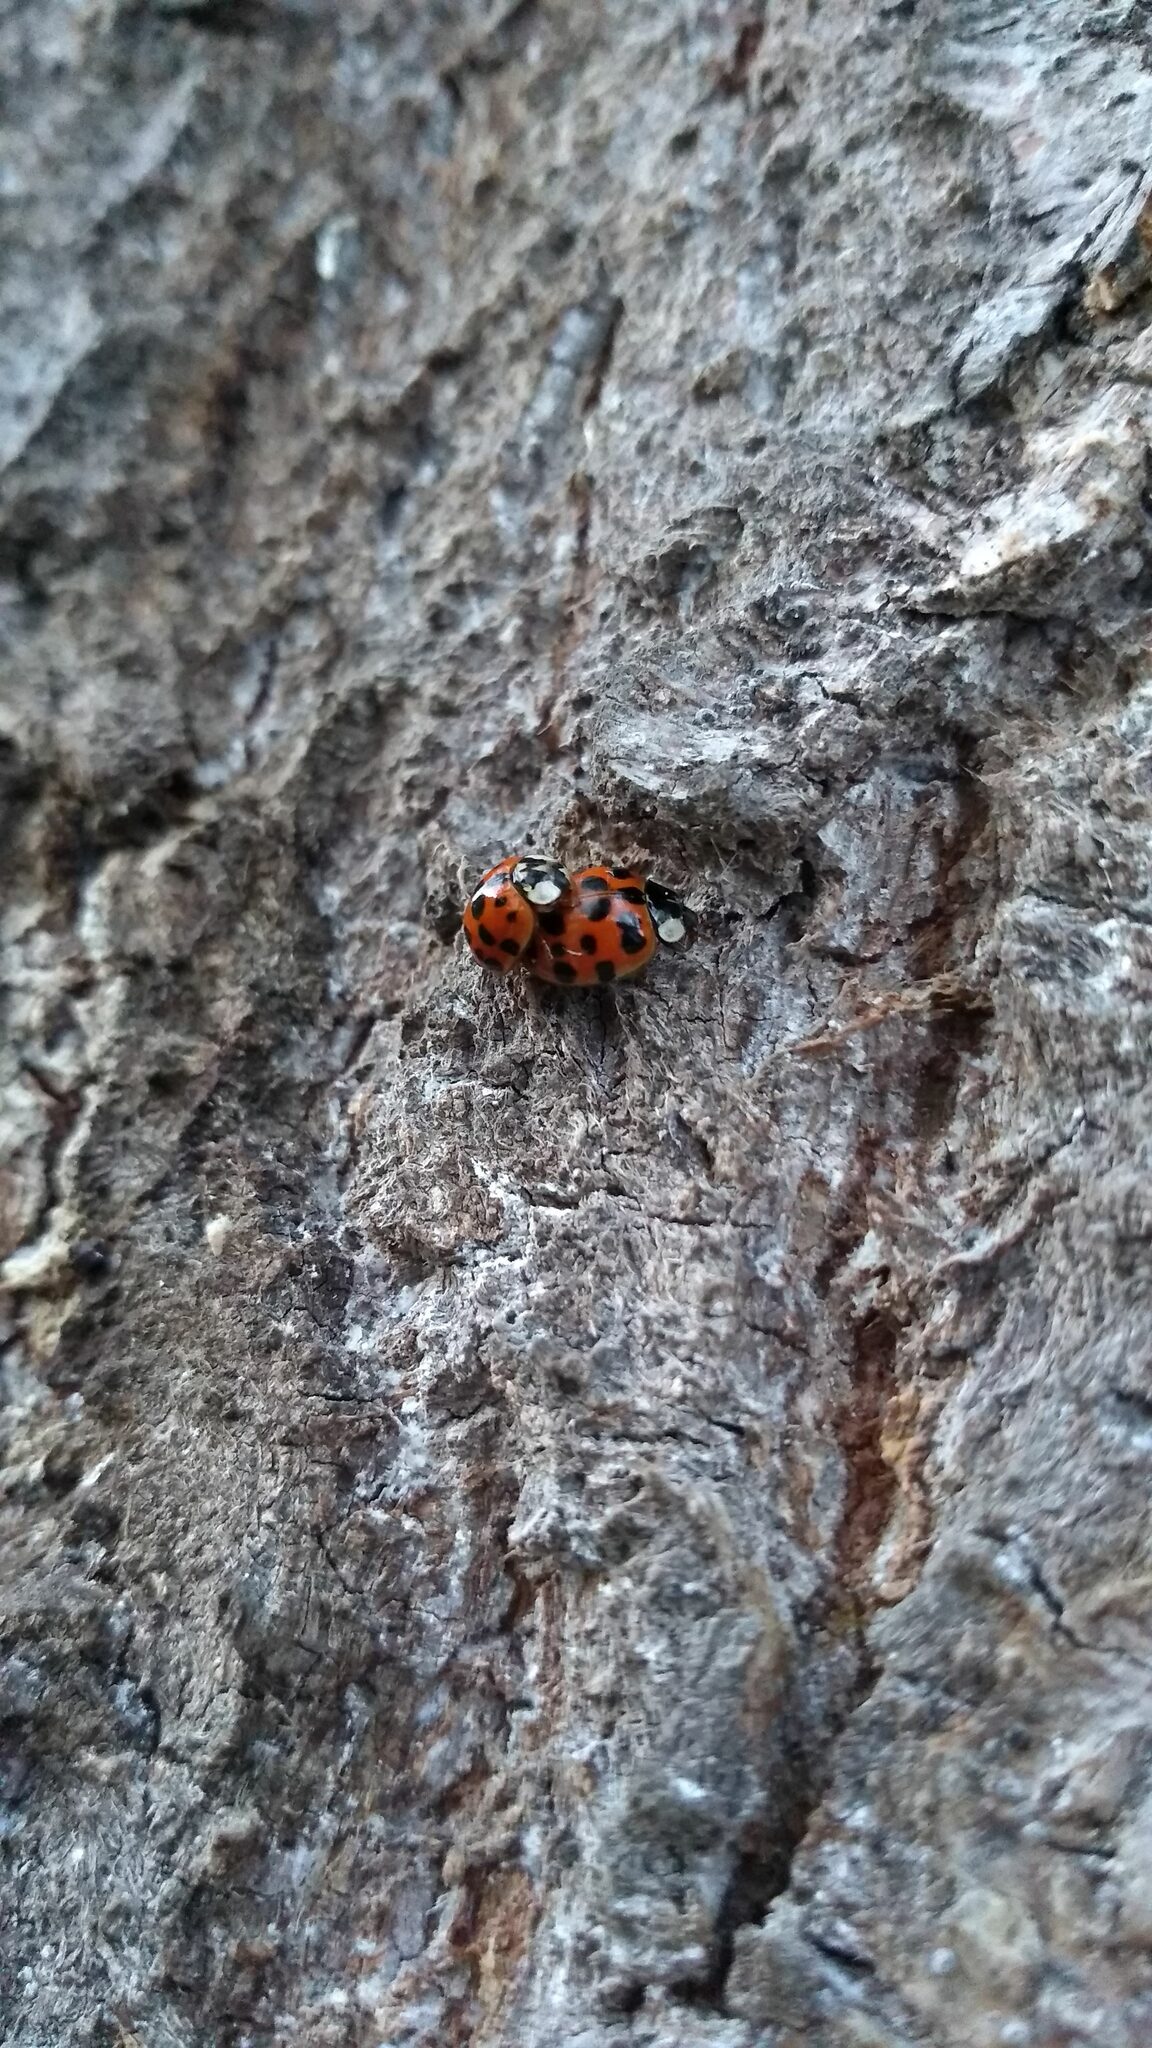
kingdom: Animalia
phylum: Arthropoda
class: Insecta
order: Coleoptera
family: Coccinellidae
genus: Harmonia
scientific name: Harmonia axyridis
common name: Harlequin ladybird
